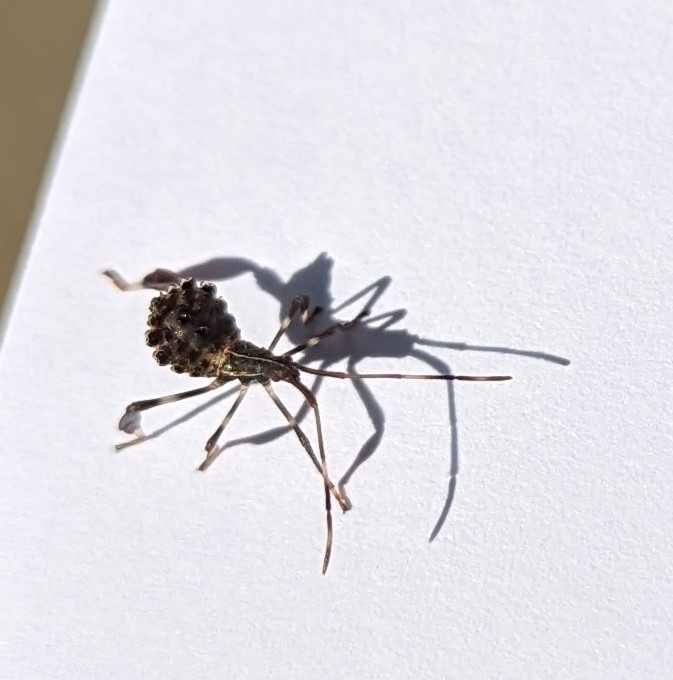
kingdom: Animalia
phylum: Arthropoda
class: Insecta
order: Hemiptera
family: Coreidae
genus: Acanthocephala
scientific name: Acanthocephala terminalis
